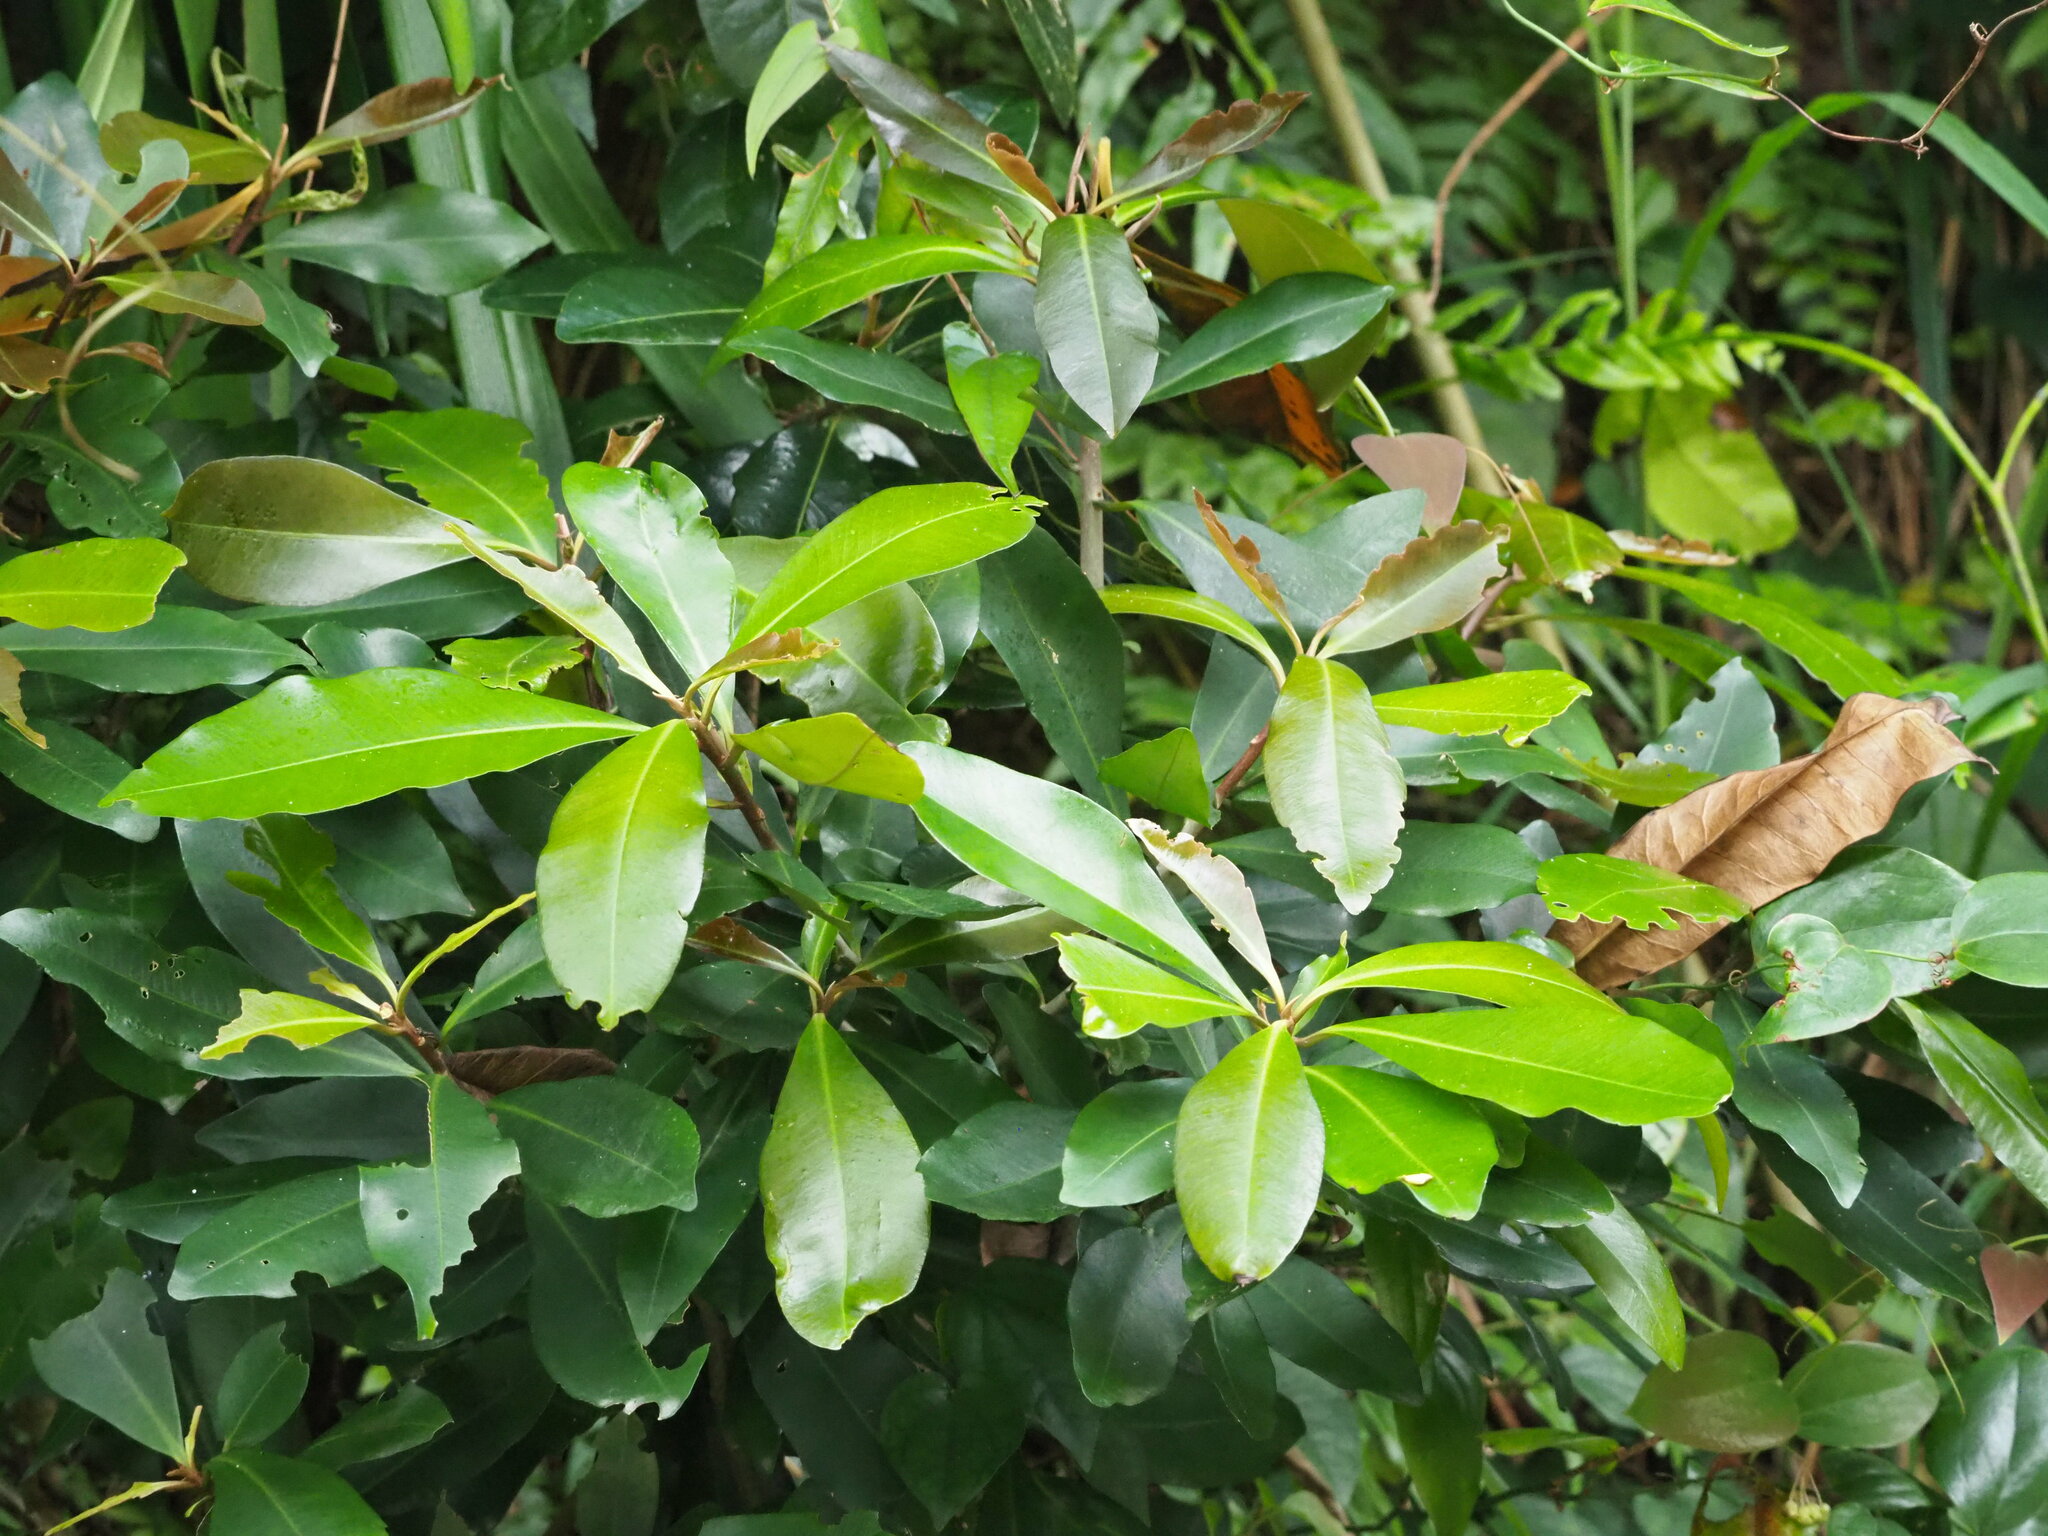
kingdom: Plantae
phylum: Tracheophyta
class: Magnoliopsida
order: Ericales
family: Primulaceae
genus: Ardisia
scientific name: Ardisia sieboldii
